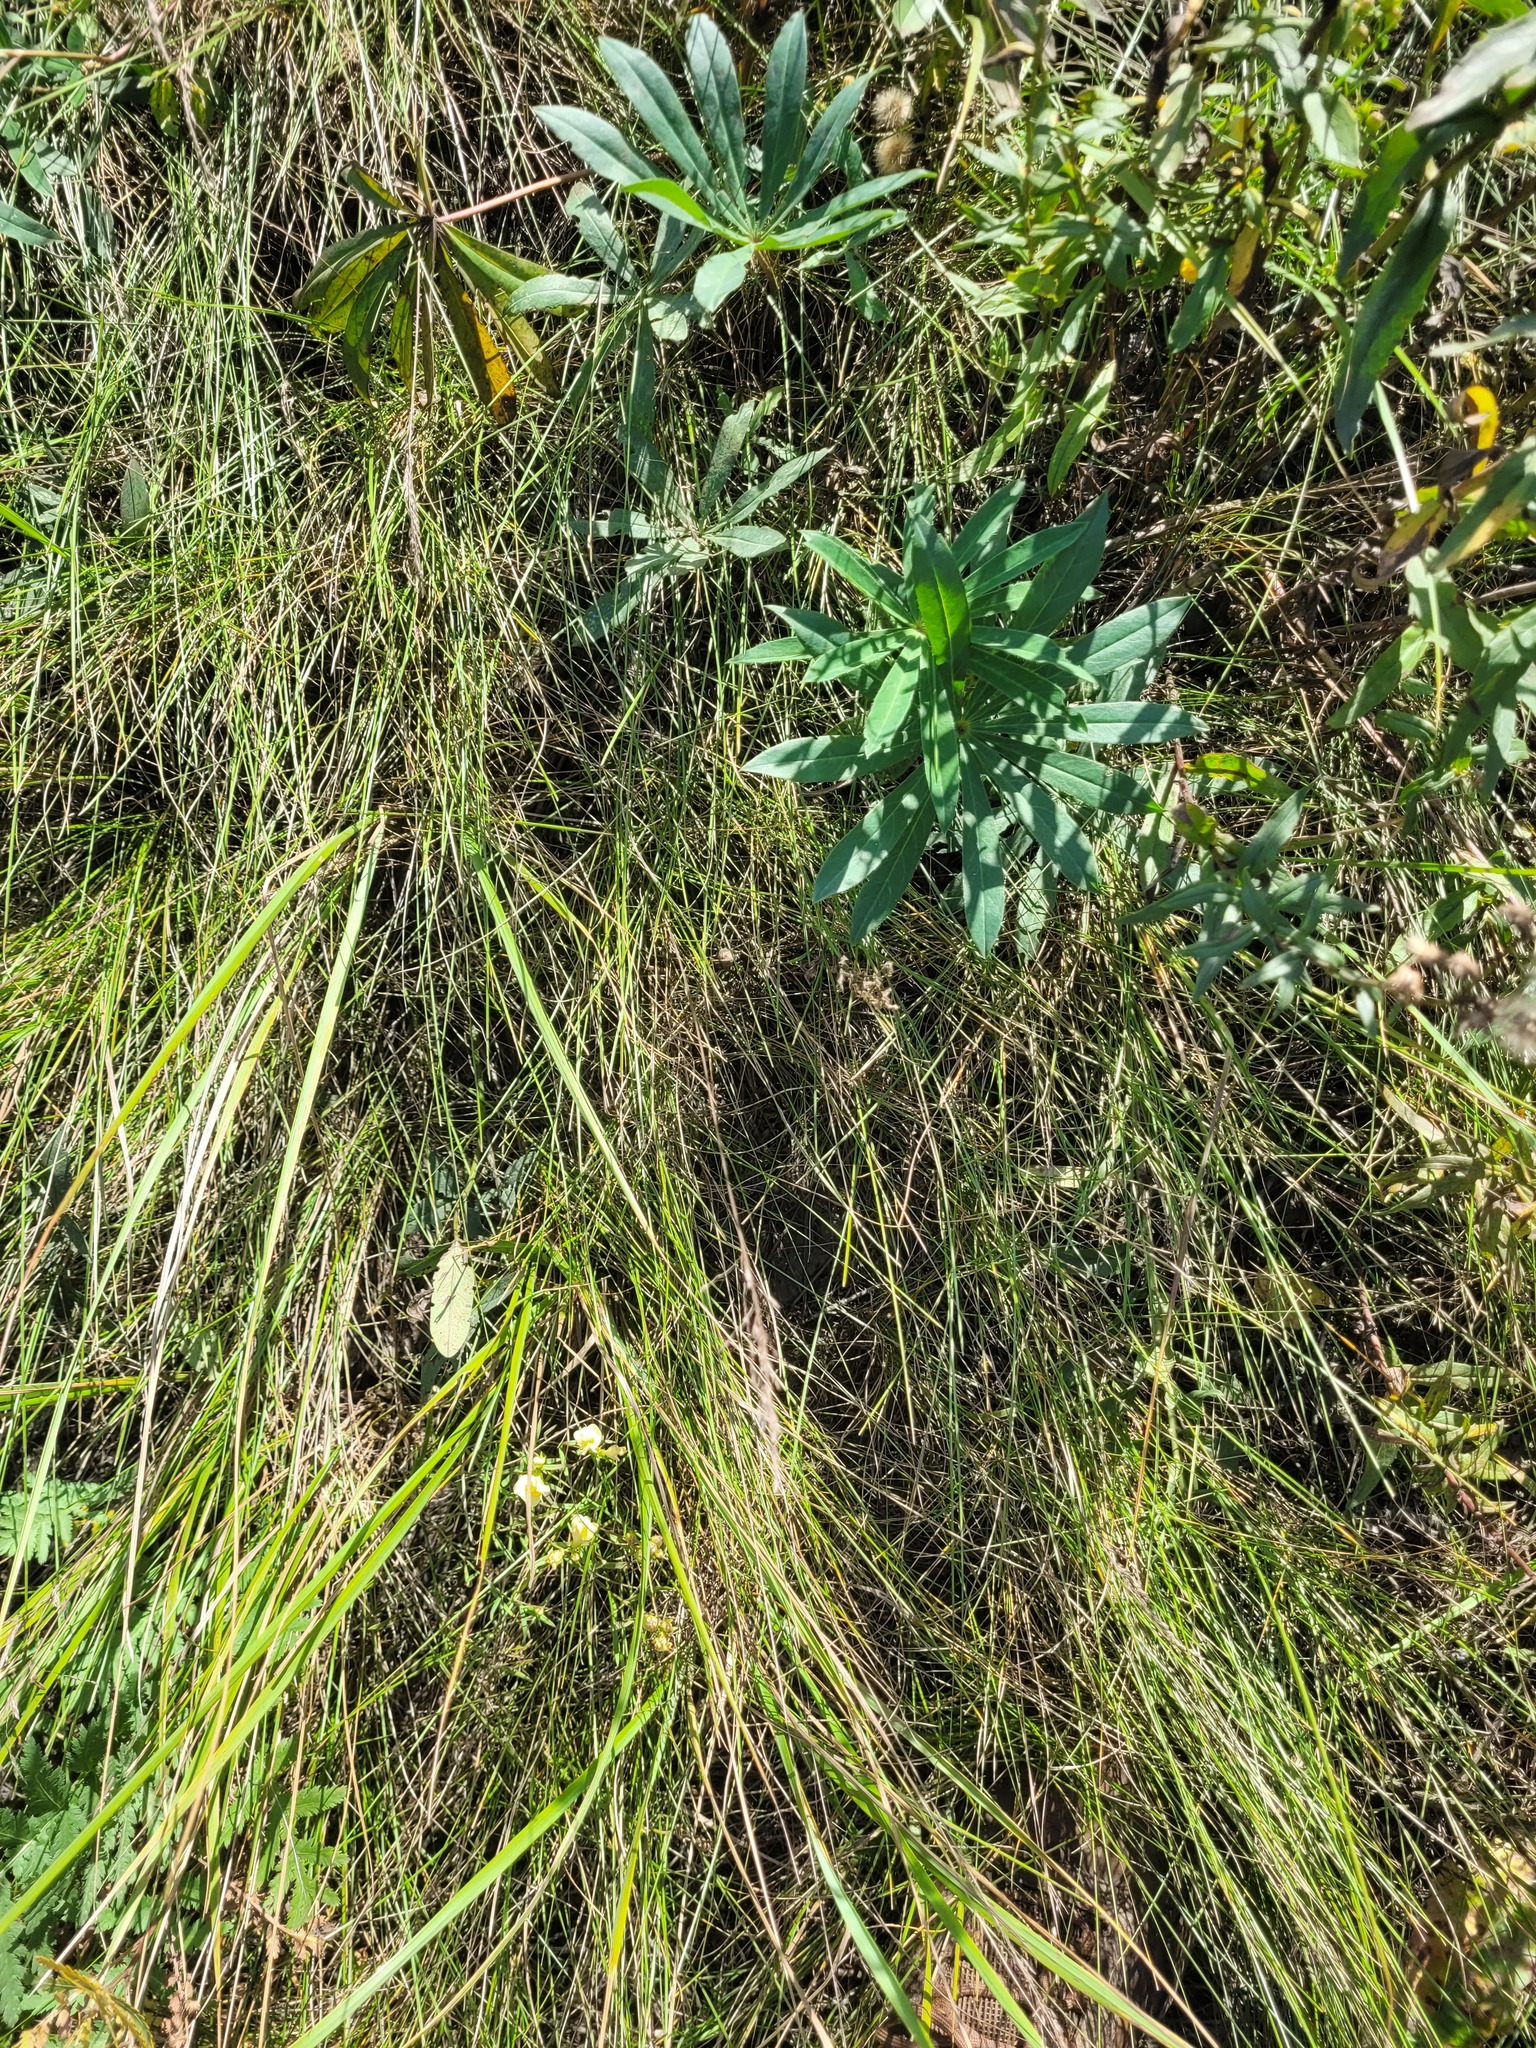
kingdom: Plantae
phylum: Tracheophyta
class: Liliopsida
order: Poales
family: Poaceae
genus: Poa
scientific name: Poa angustifolia
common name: Narrow-leaved meadow-grass
